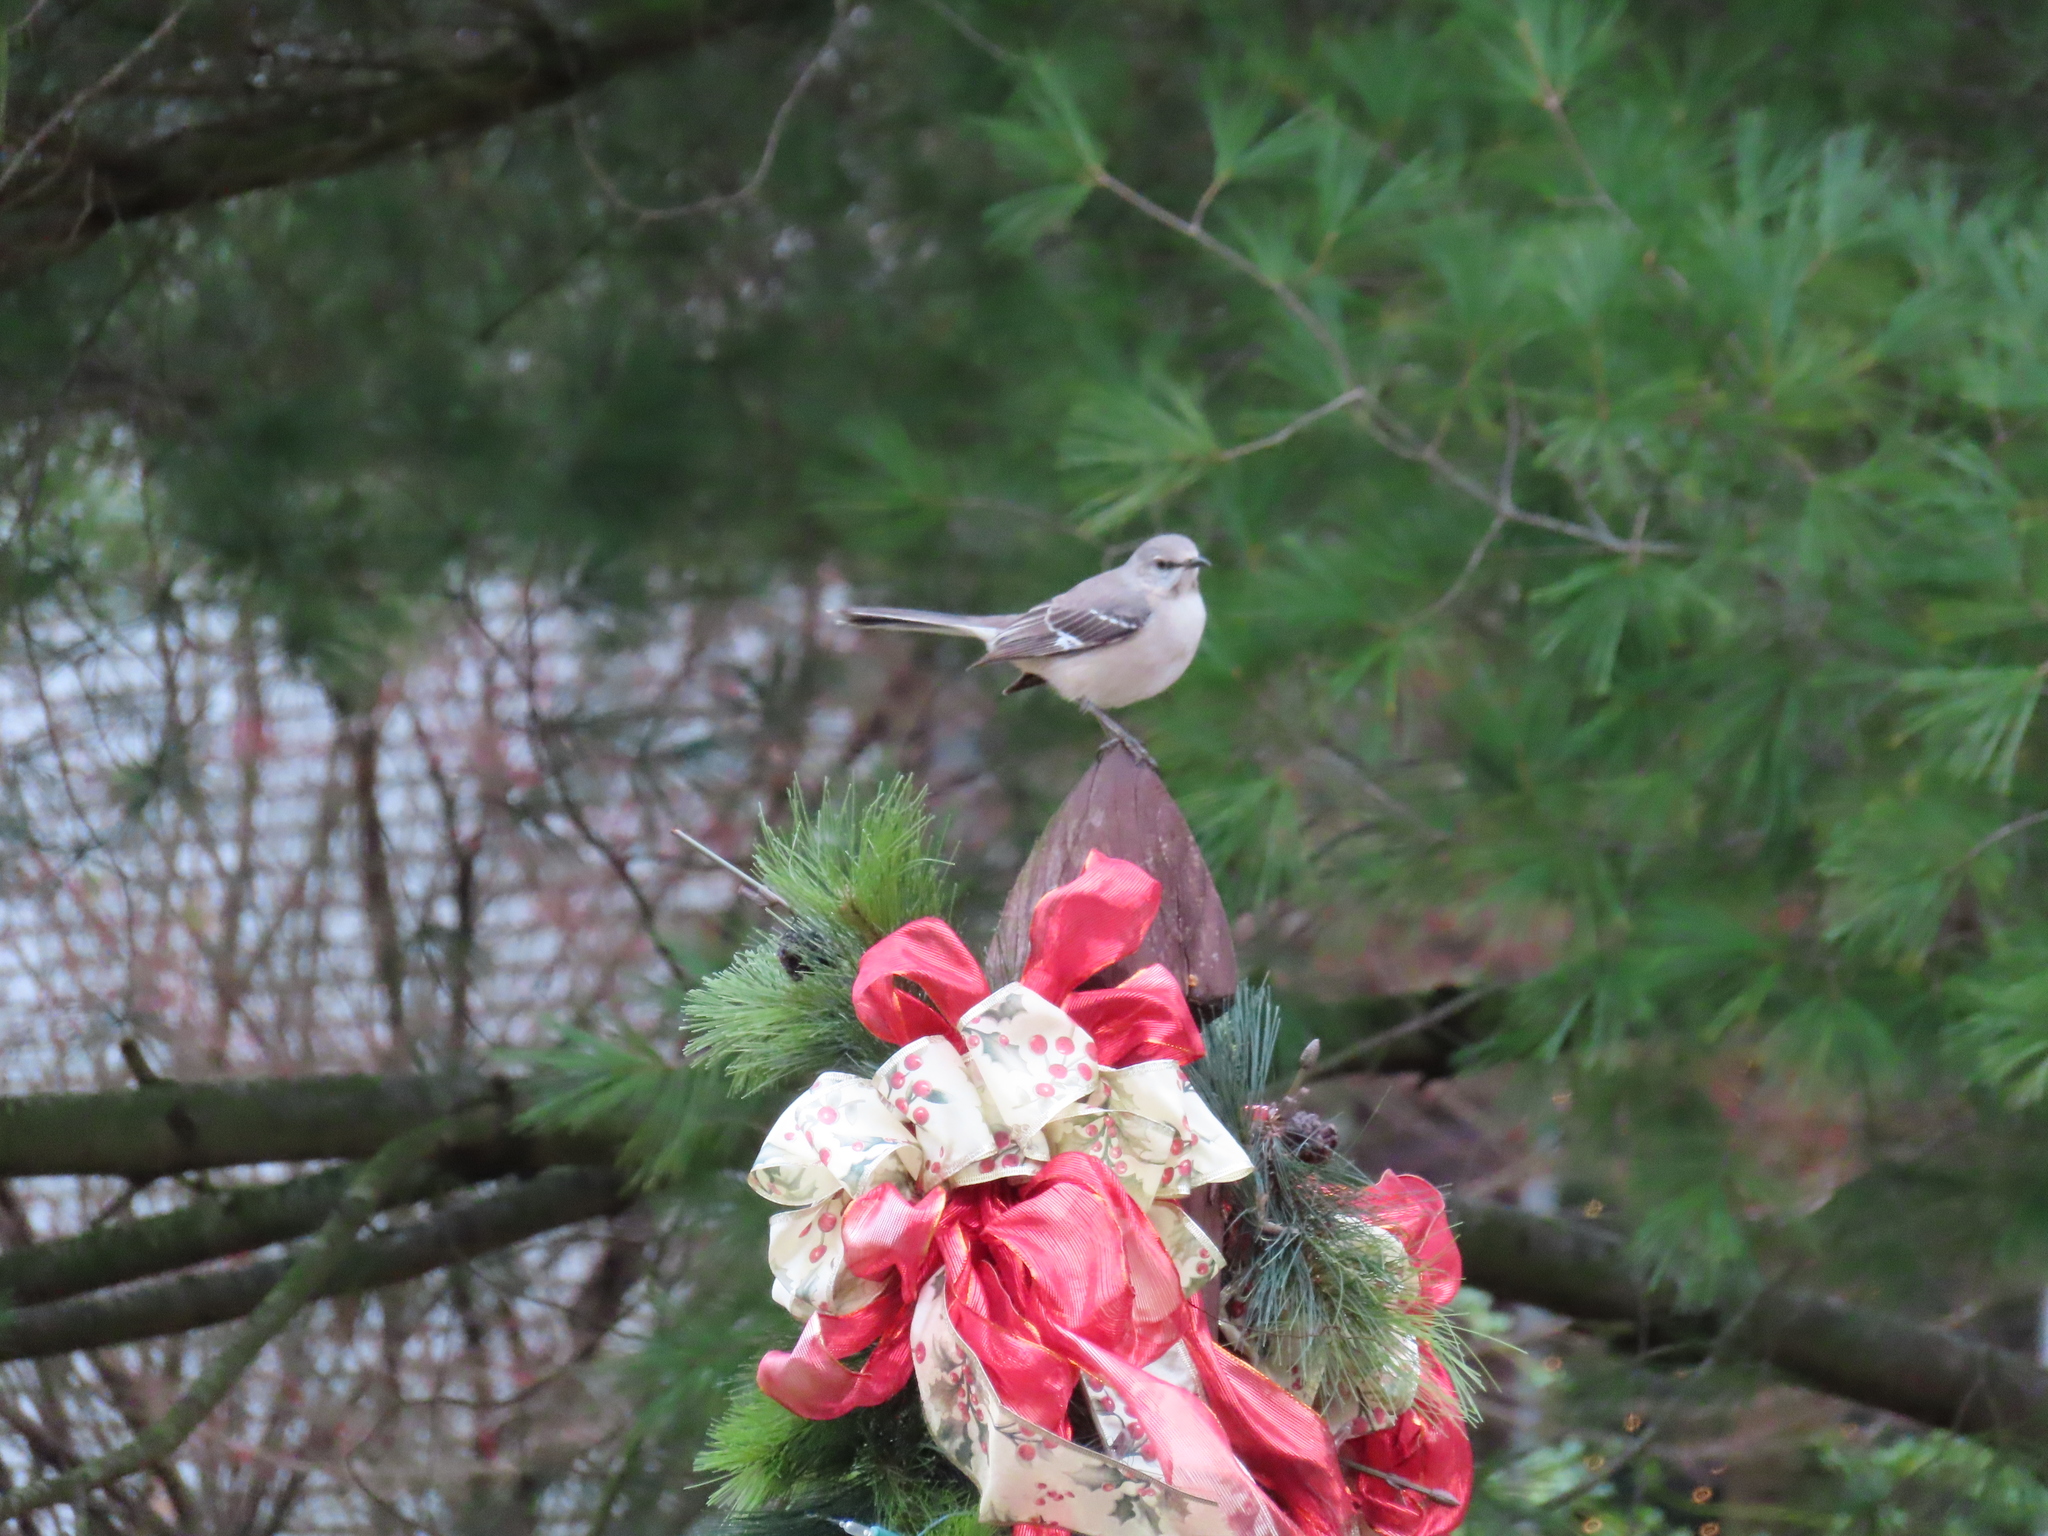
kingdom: Animalia
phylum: Chordata
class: Aves
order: Passeriformes
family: Mimidae
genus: Mimus
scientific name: Mimus polyglottos
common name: Northern mockingbird
